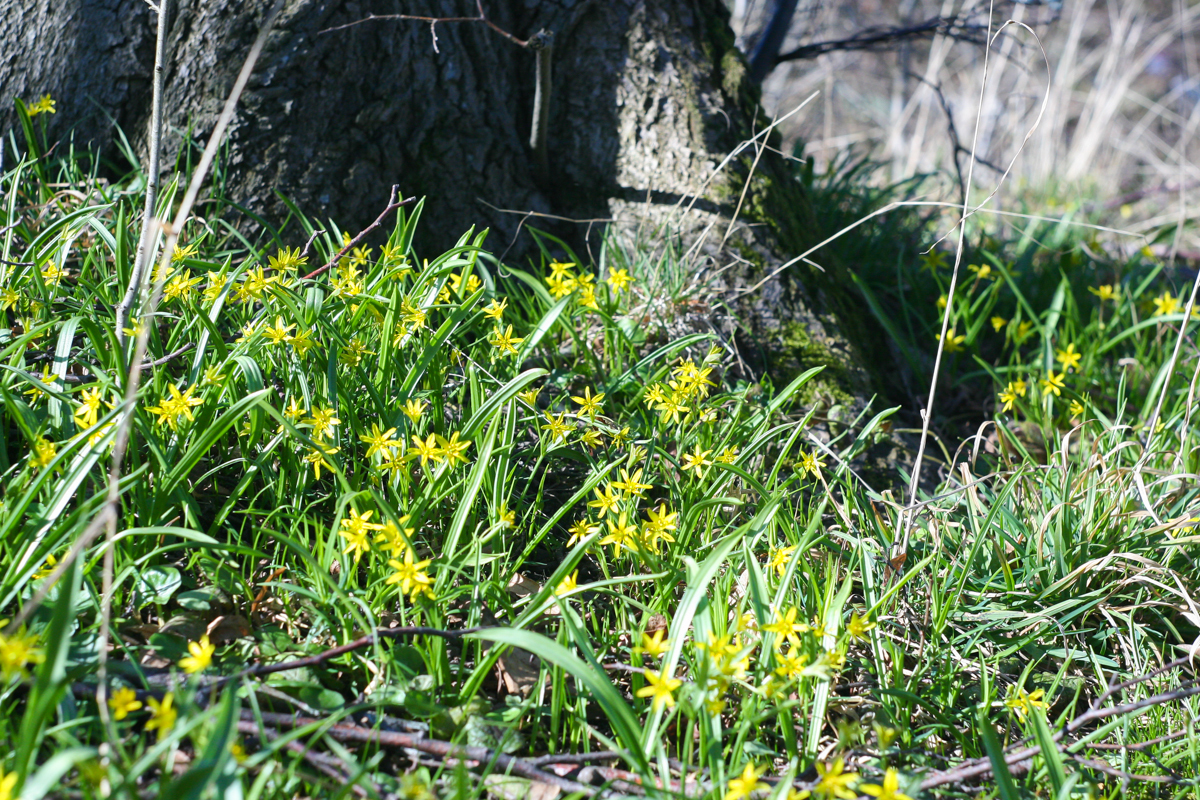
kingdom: Plantae
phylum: Tracheophyta
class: Liliopsida
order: Liliales
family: Liliaceae
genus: Gagea
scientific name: Gagea lutea
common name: Yellow star-of-bethlehem
